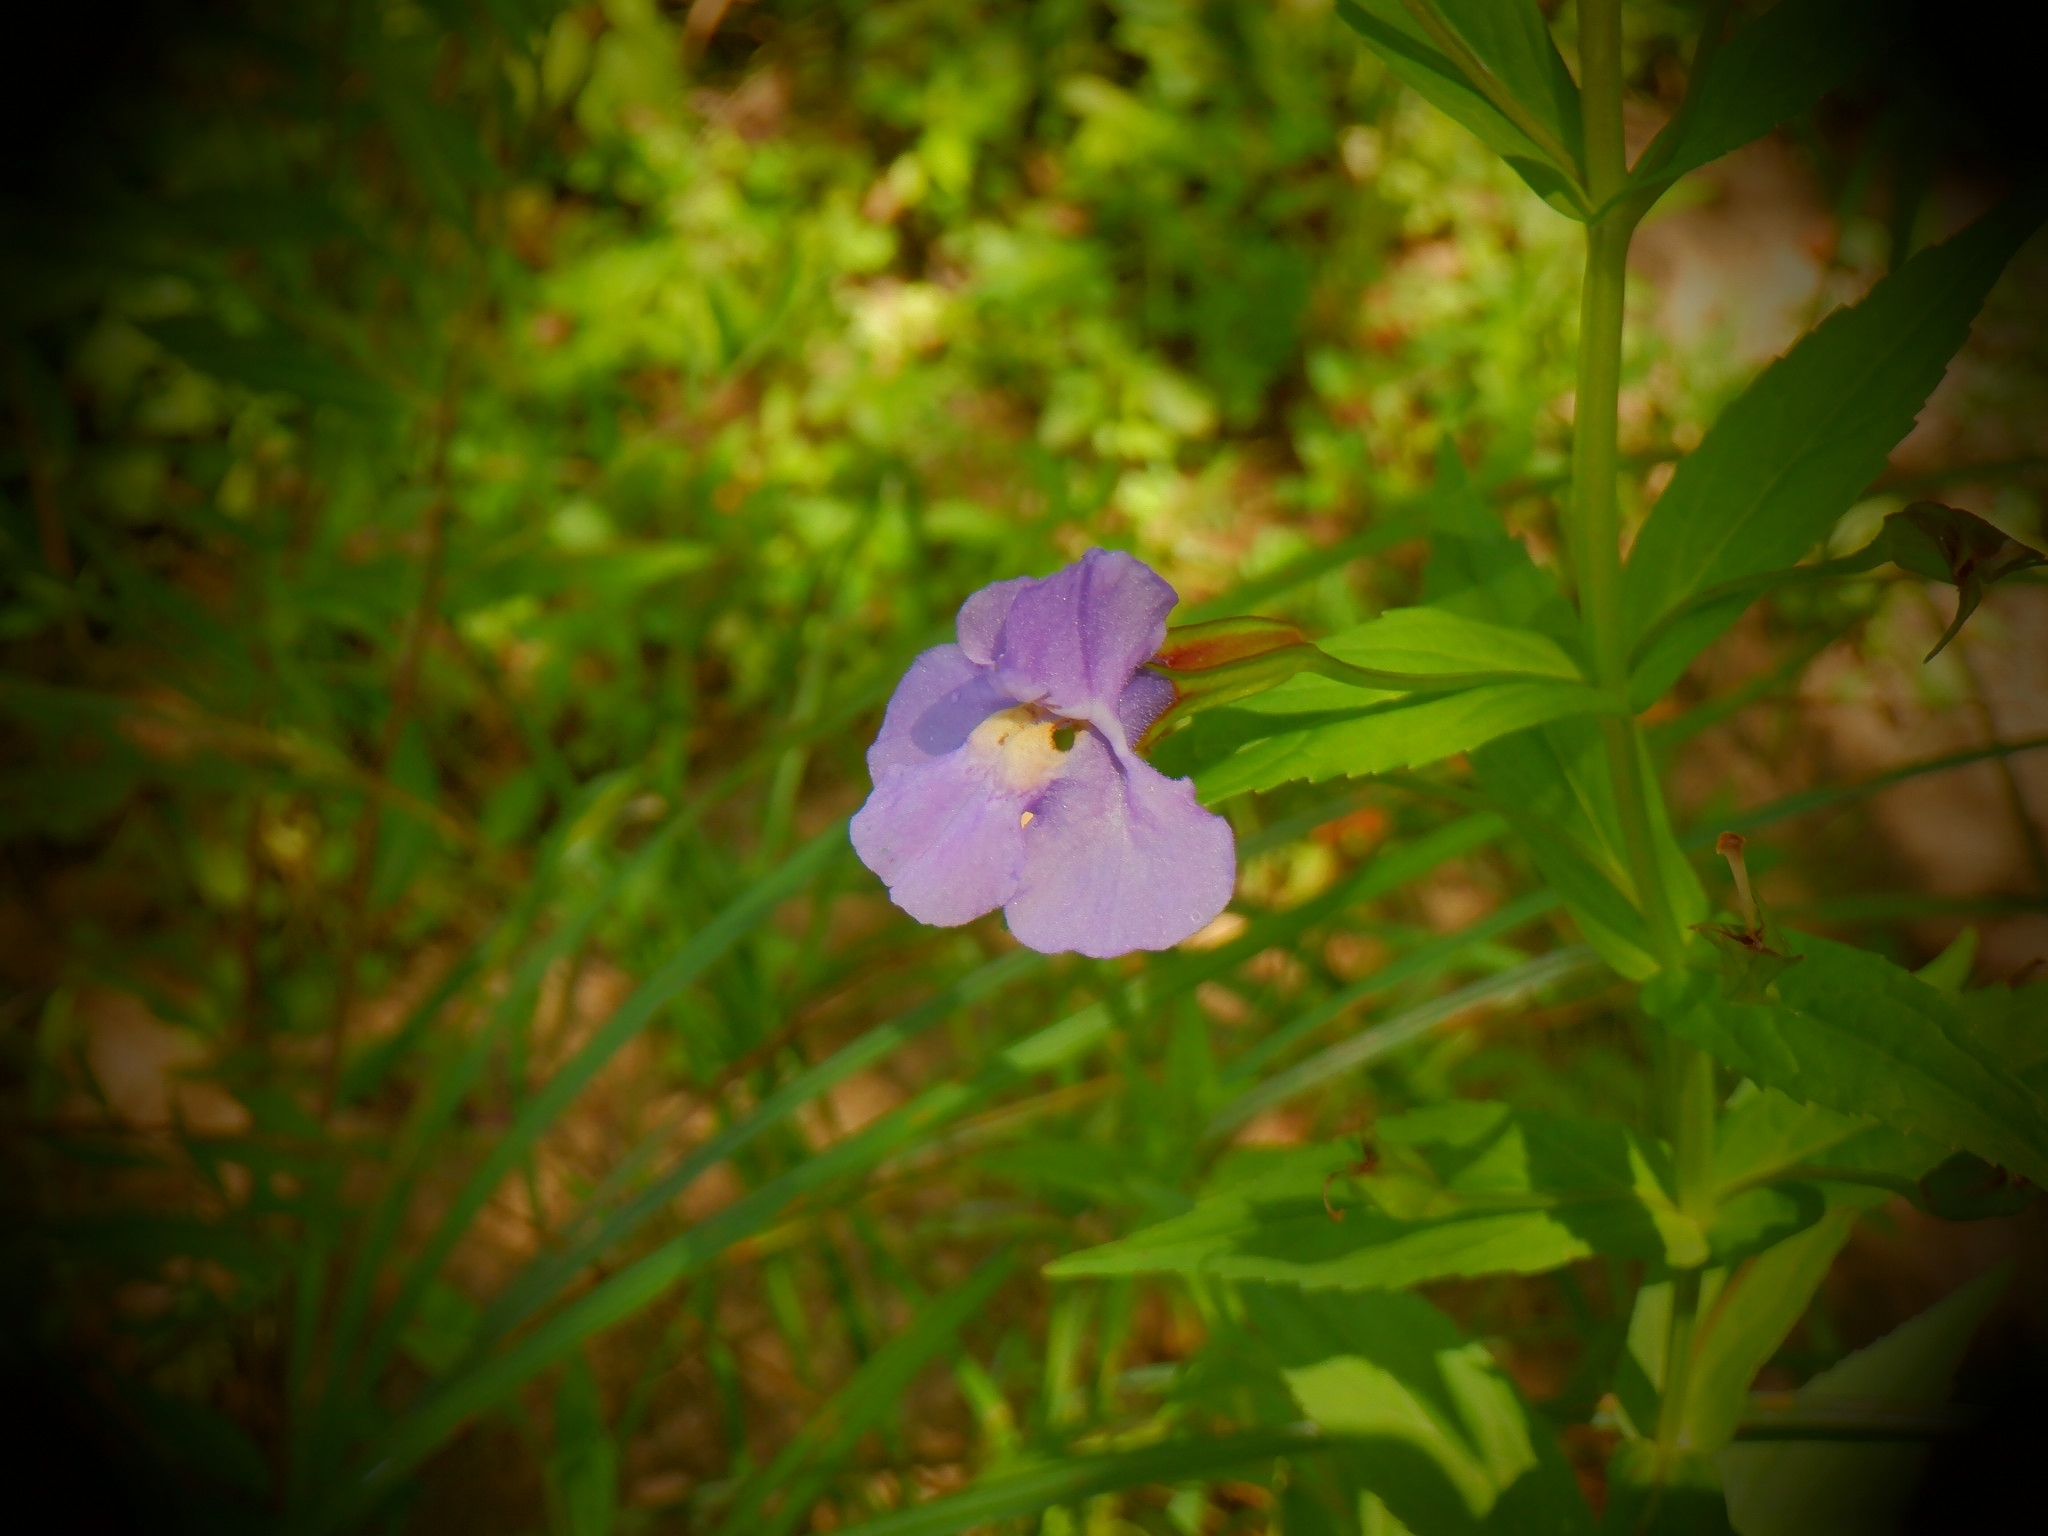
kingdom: Plantae
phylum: Tracheophyta
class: Magnoliopsida
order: Lamiales
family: Phrymaceae
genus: Mimulus
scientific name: Mimulus ringens
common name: Allegheny monkeyflower
